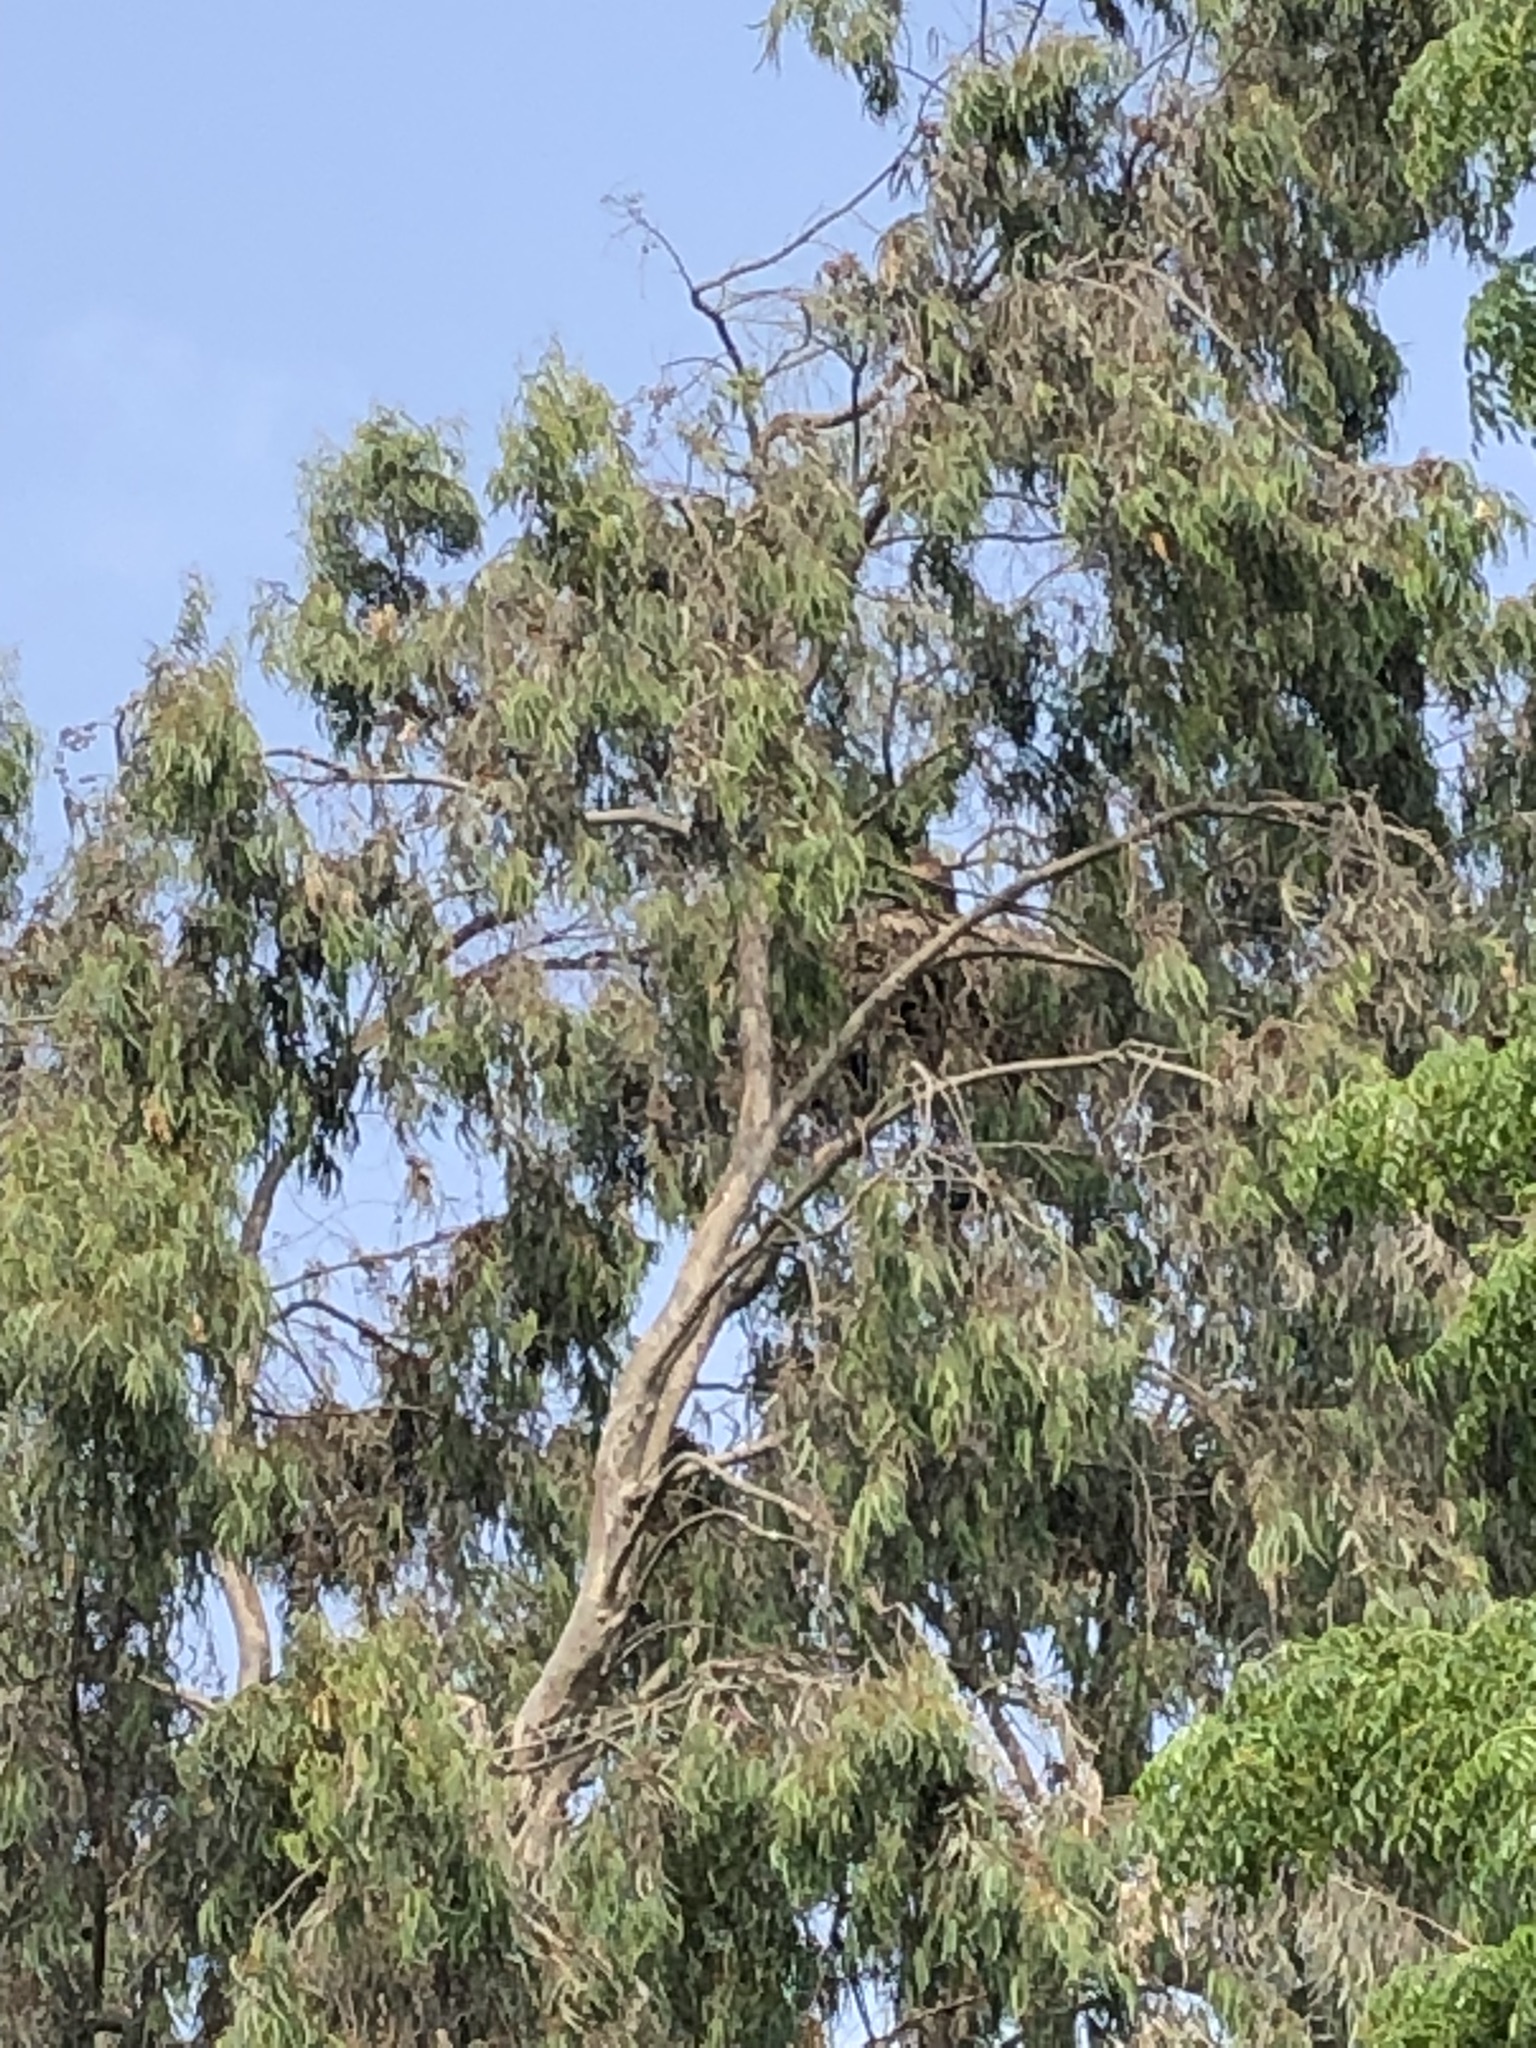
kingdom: Animalia
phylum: Chordata
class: Aves
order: Accipitriformes
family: Accipitridae
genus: Parabuteo
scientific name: Parabuteo unicinctus
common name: Harris's hawk
